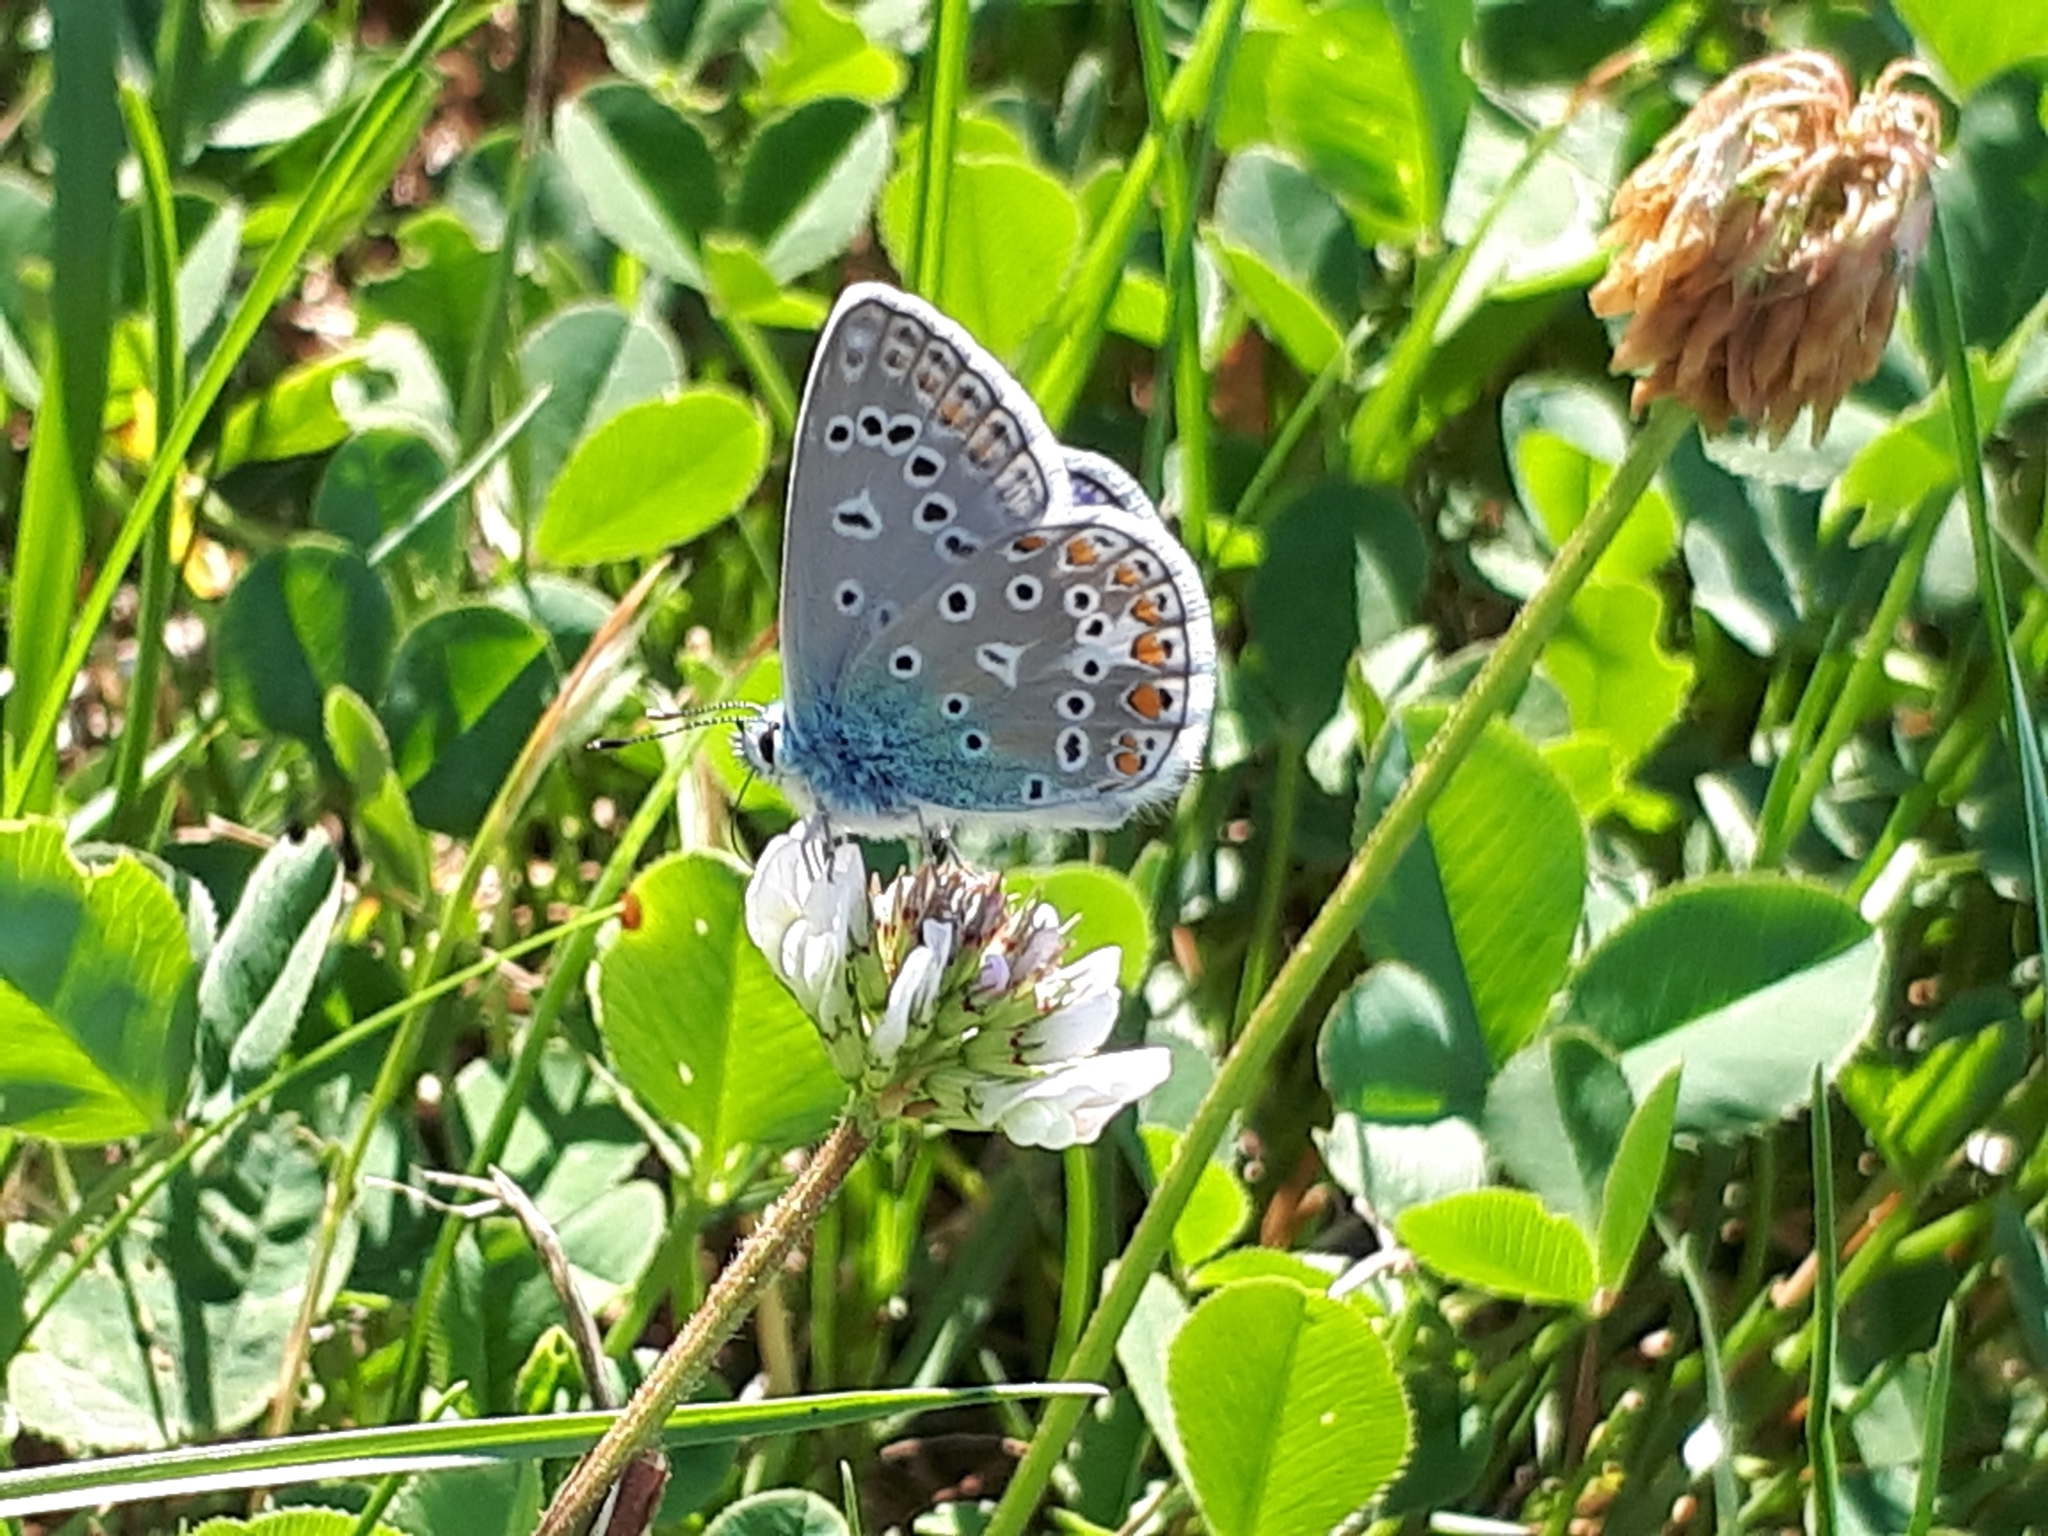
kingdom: Animalia
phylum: Arthropoda
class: Insecta
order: Lepidoptera
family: Lycaenidae
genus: Polyommatus
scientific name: Polyommatus icarus
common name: Common blue
